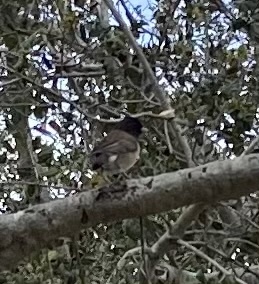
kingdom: Animalia
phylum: Chordata
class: Aves
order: Passeriformes
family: Passerellidae
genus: Junco
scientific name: Junco hyemalis
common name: Dark-eyed junco
